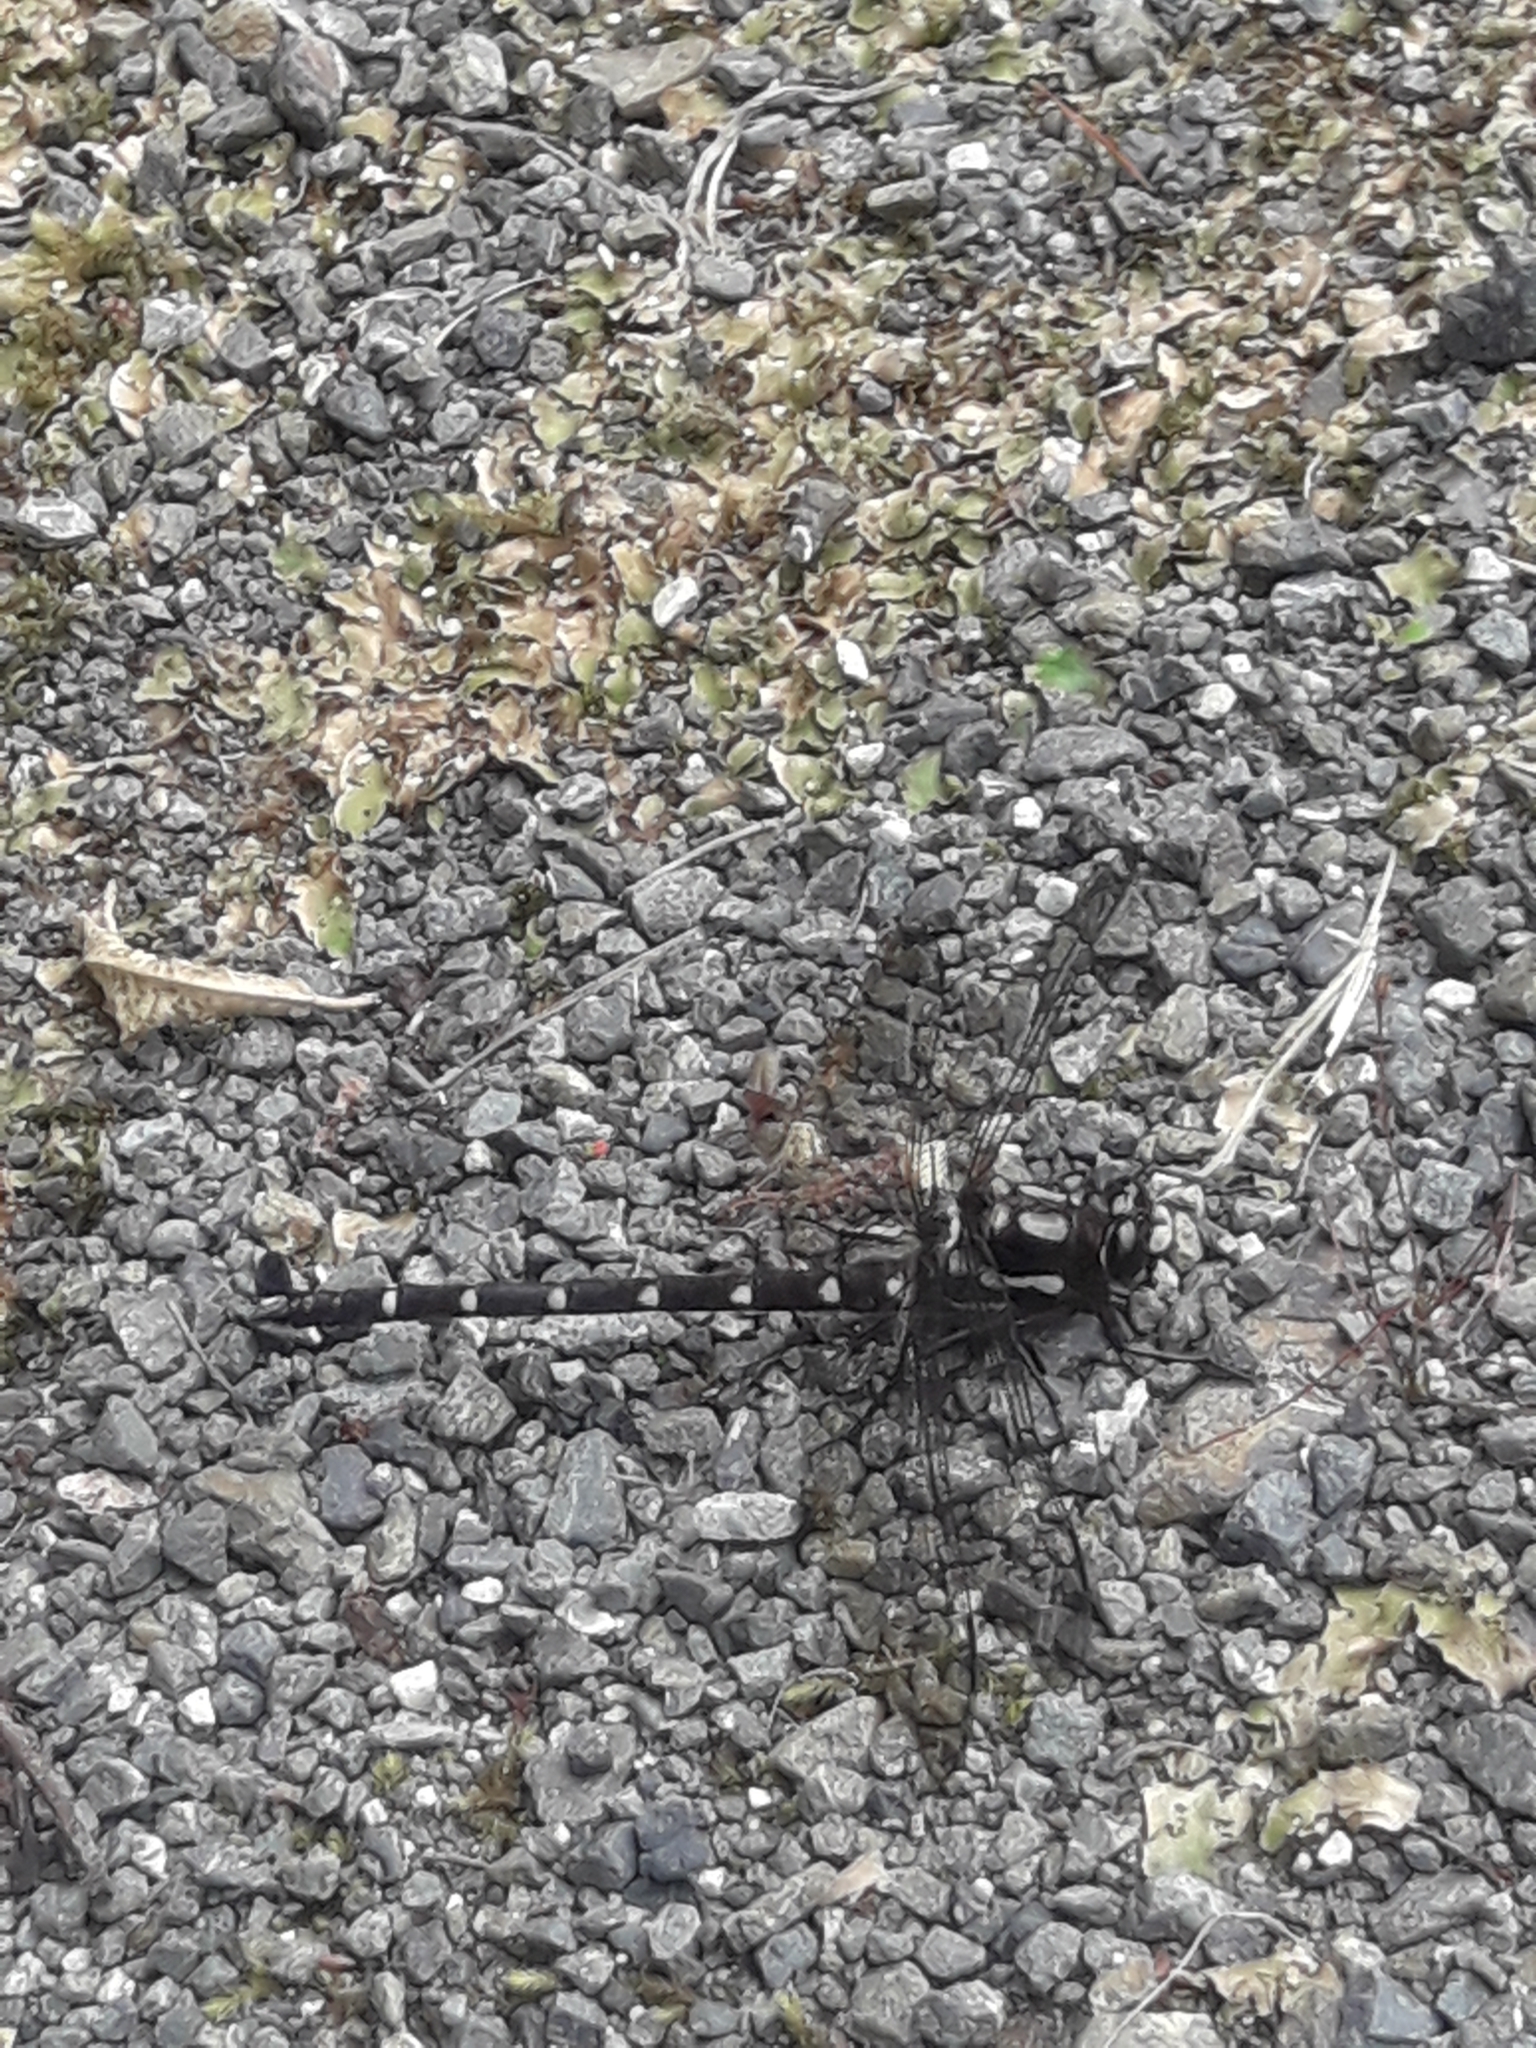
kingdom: Animalia
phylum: Arthropoda
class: Insecta
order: Odonata
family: Petaluridae
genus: Uropetala
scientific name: Uropetala carovei
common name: Bush giant dragonfly
